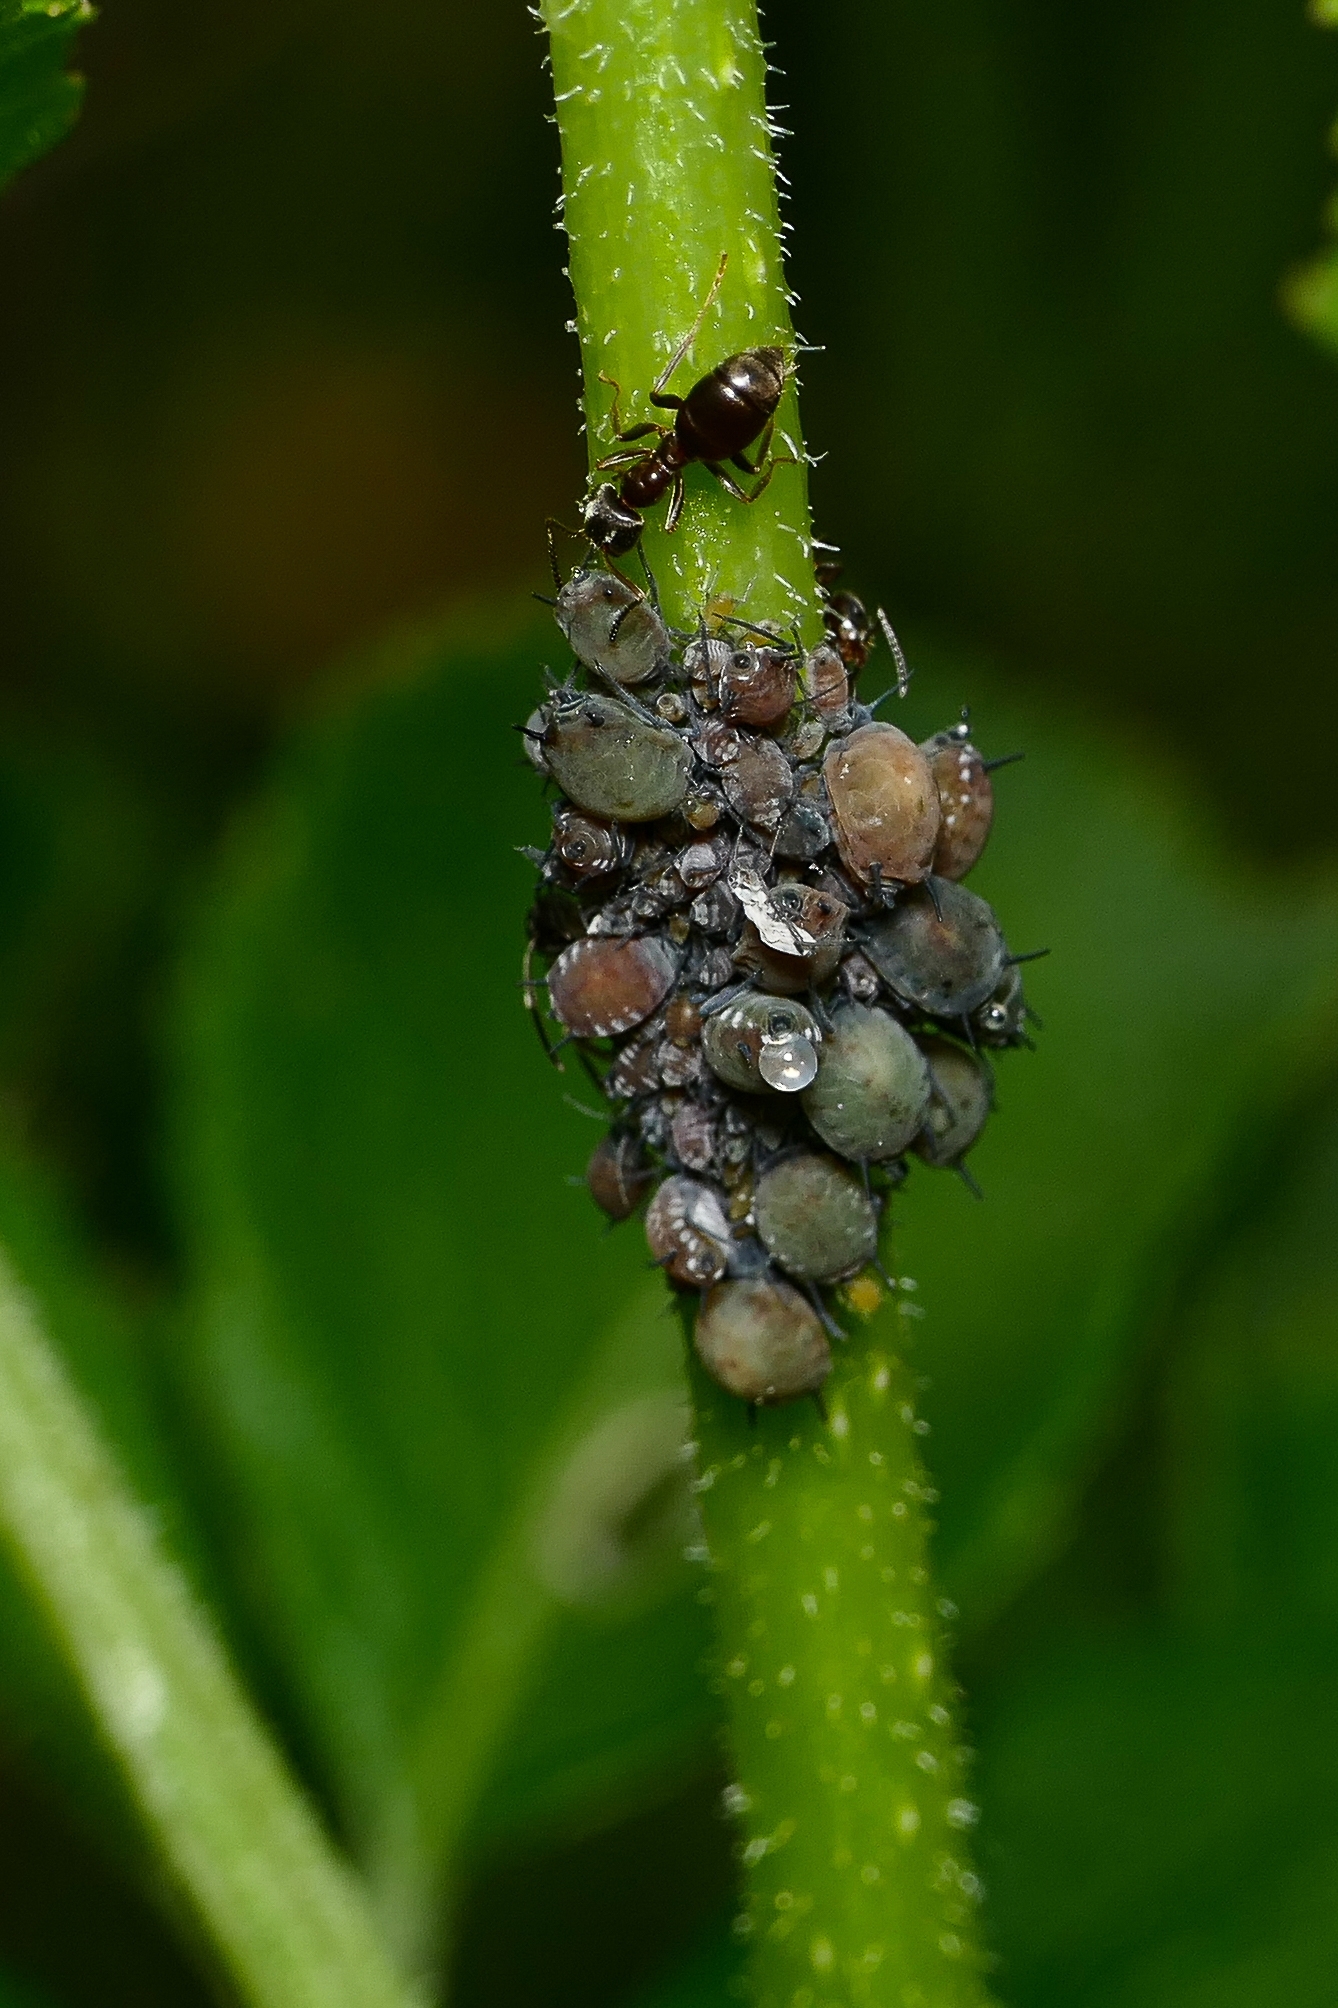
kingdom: Animalia
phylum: Arthropoda
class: Insecta
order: Hemiptera
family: Aphididae
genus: Aphis
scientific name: Aphis sambuci
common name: Elder aphid
